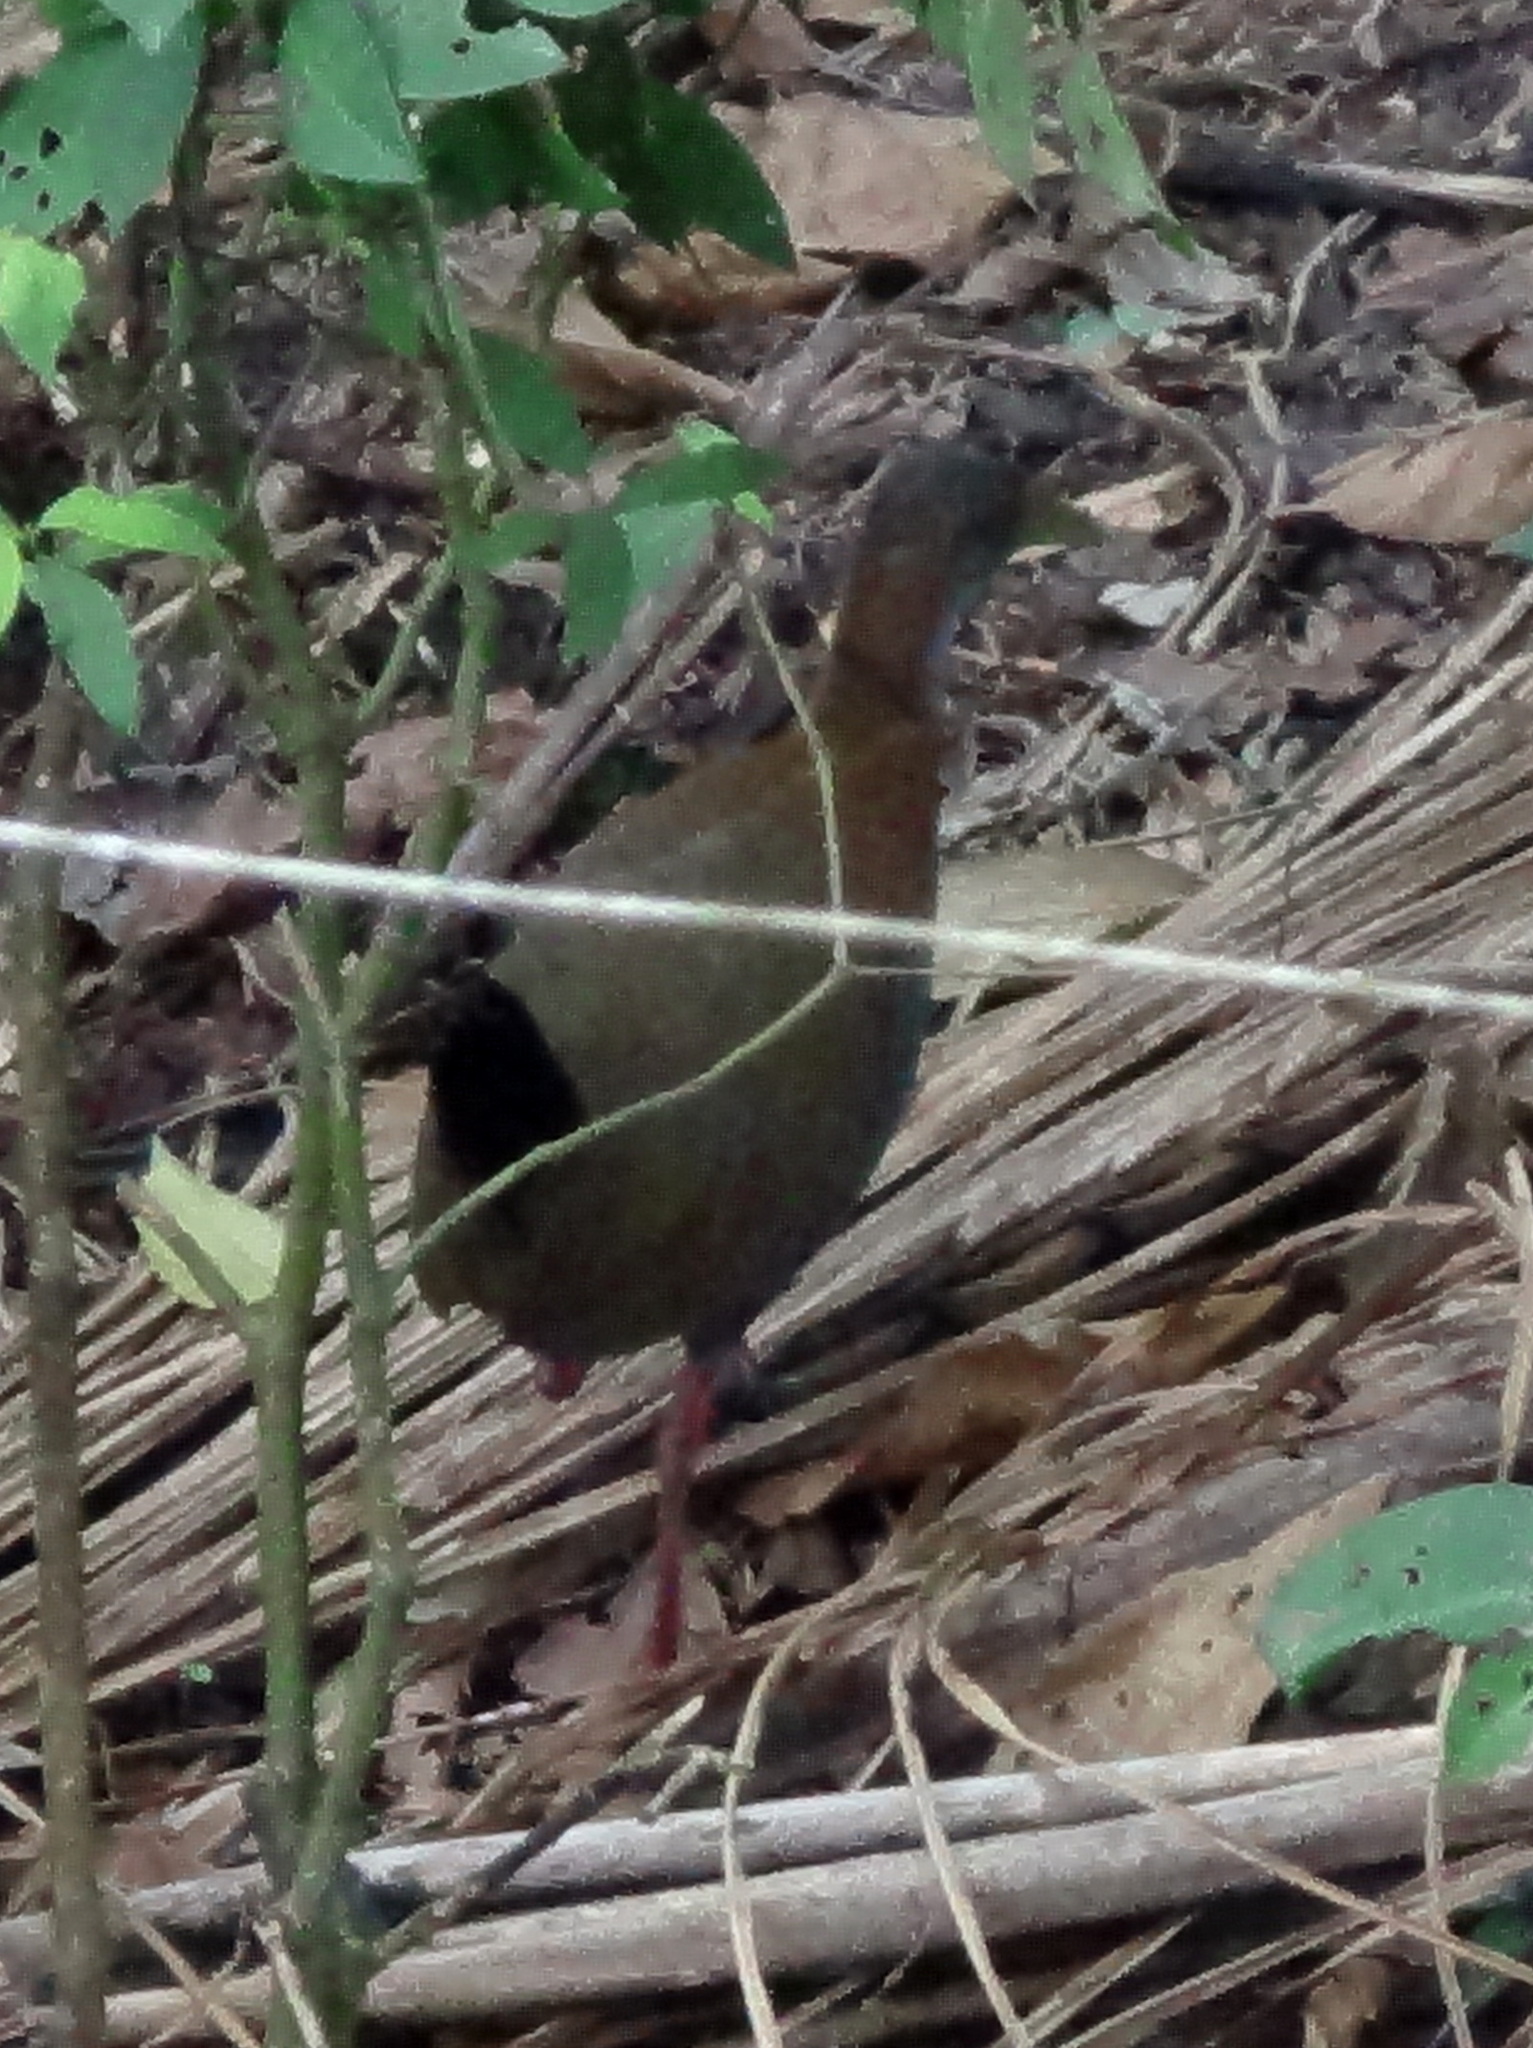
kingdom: Animalia
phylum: Chordata
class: Aves
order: Gruiformes
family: Rallidae
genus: Aramides
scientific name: Aramides saracura
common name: Slaty-breasted wood rail
